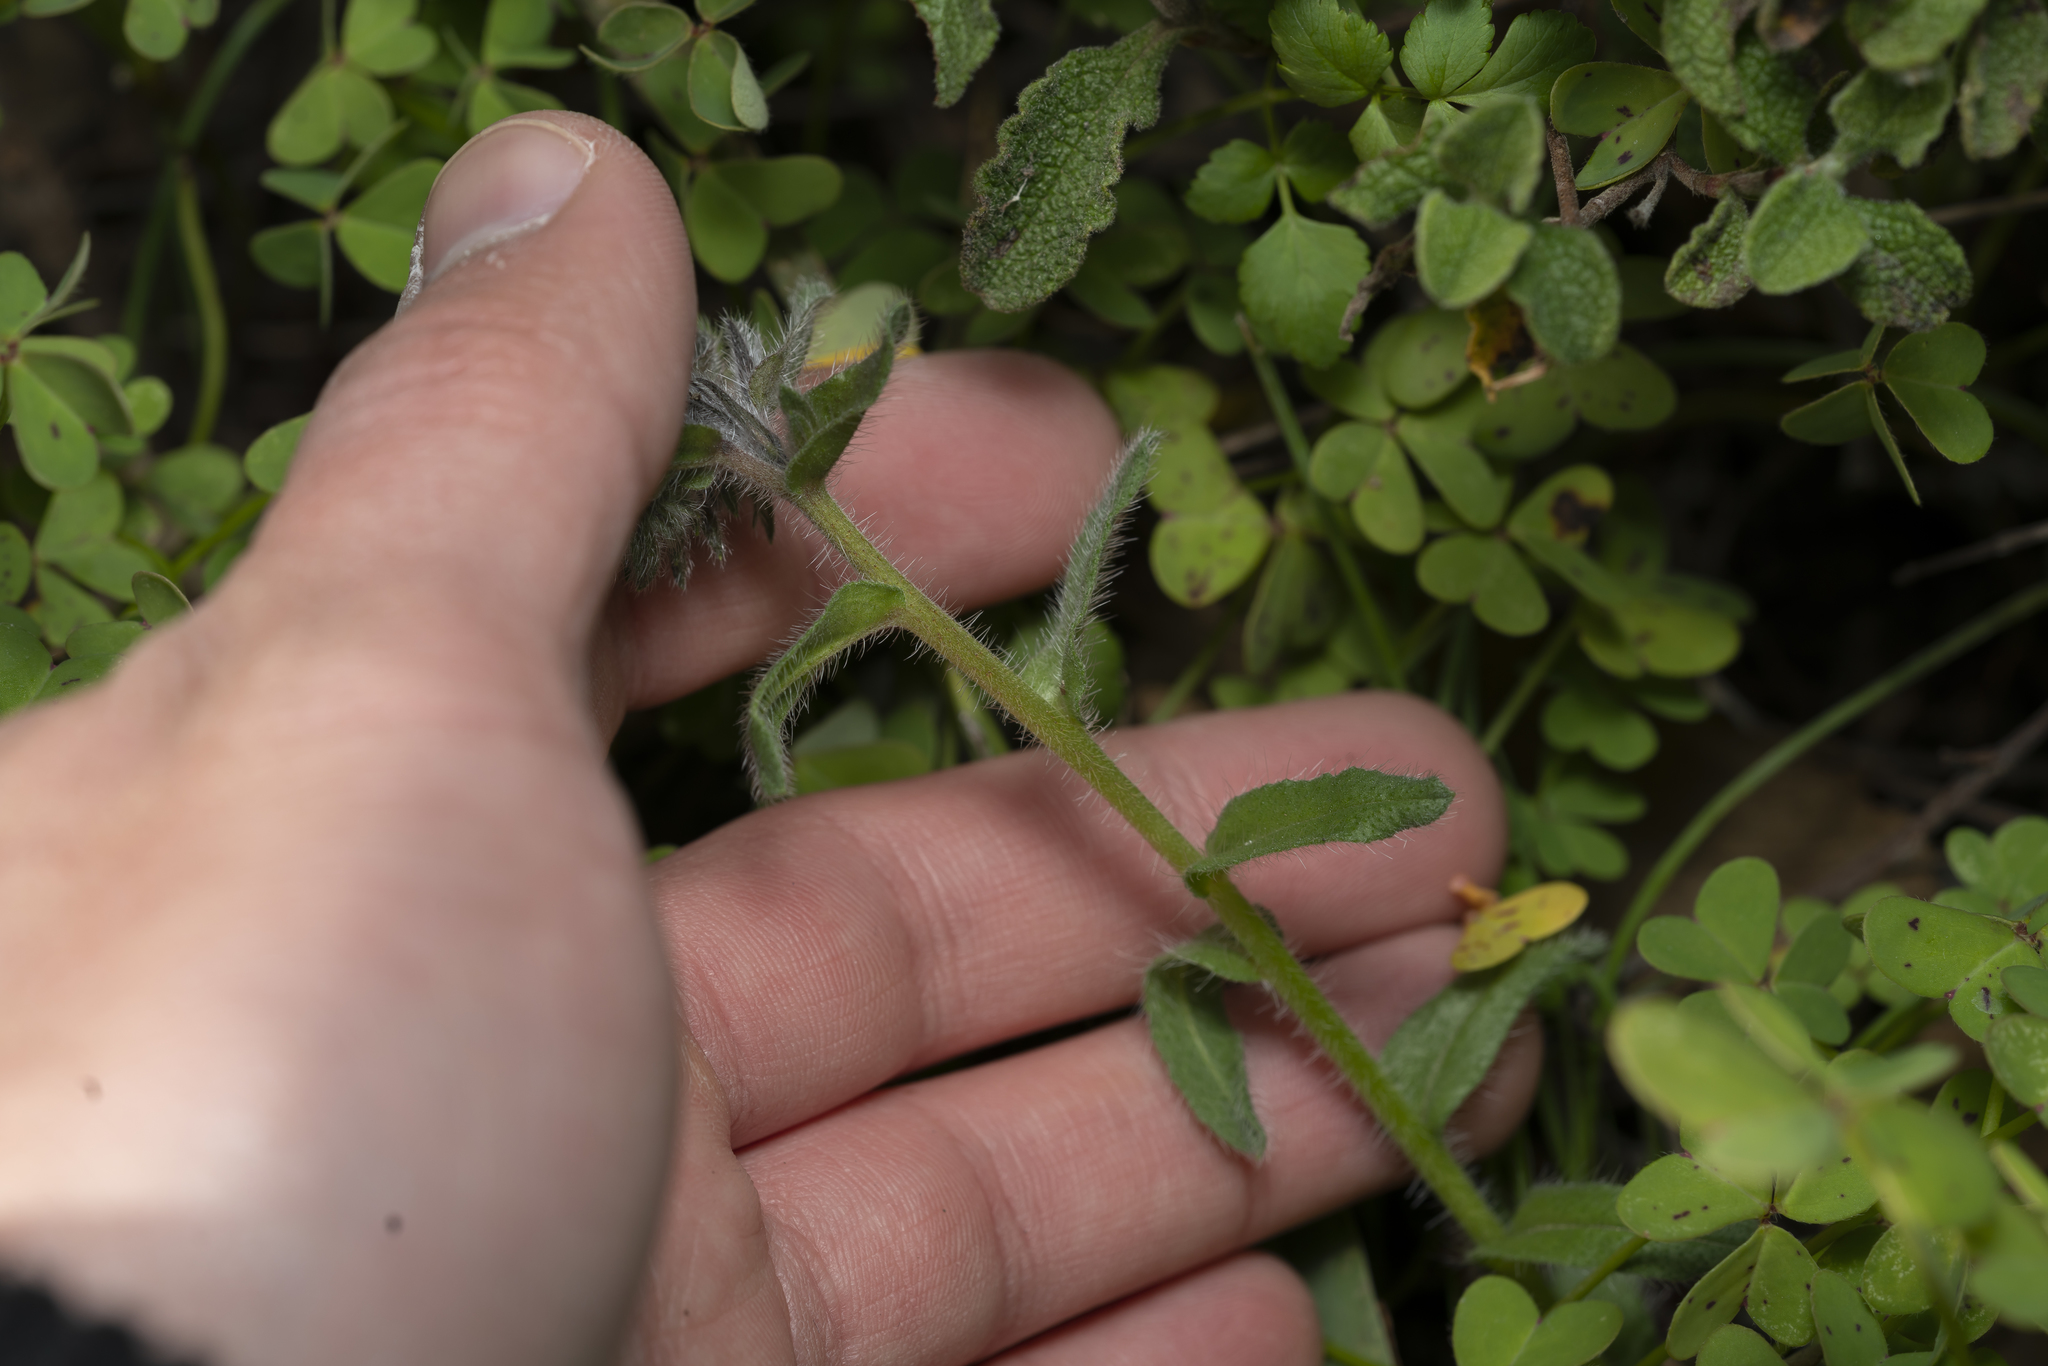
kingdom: Plantae
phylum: Tracheophyta
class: Magnoliopsida
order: Boraginales
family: Boraginaceae
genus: Alkanna
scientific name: Alkanna tinctoria
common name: Dyer's-alkanet
